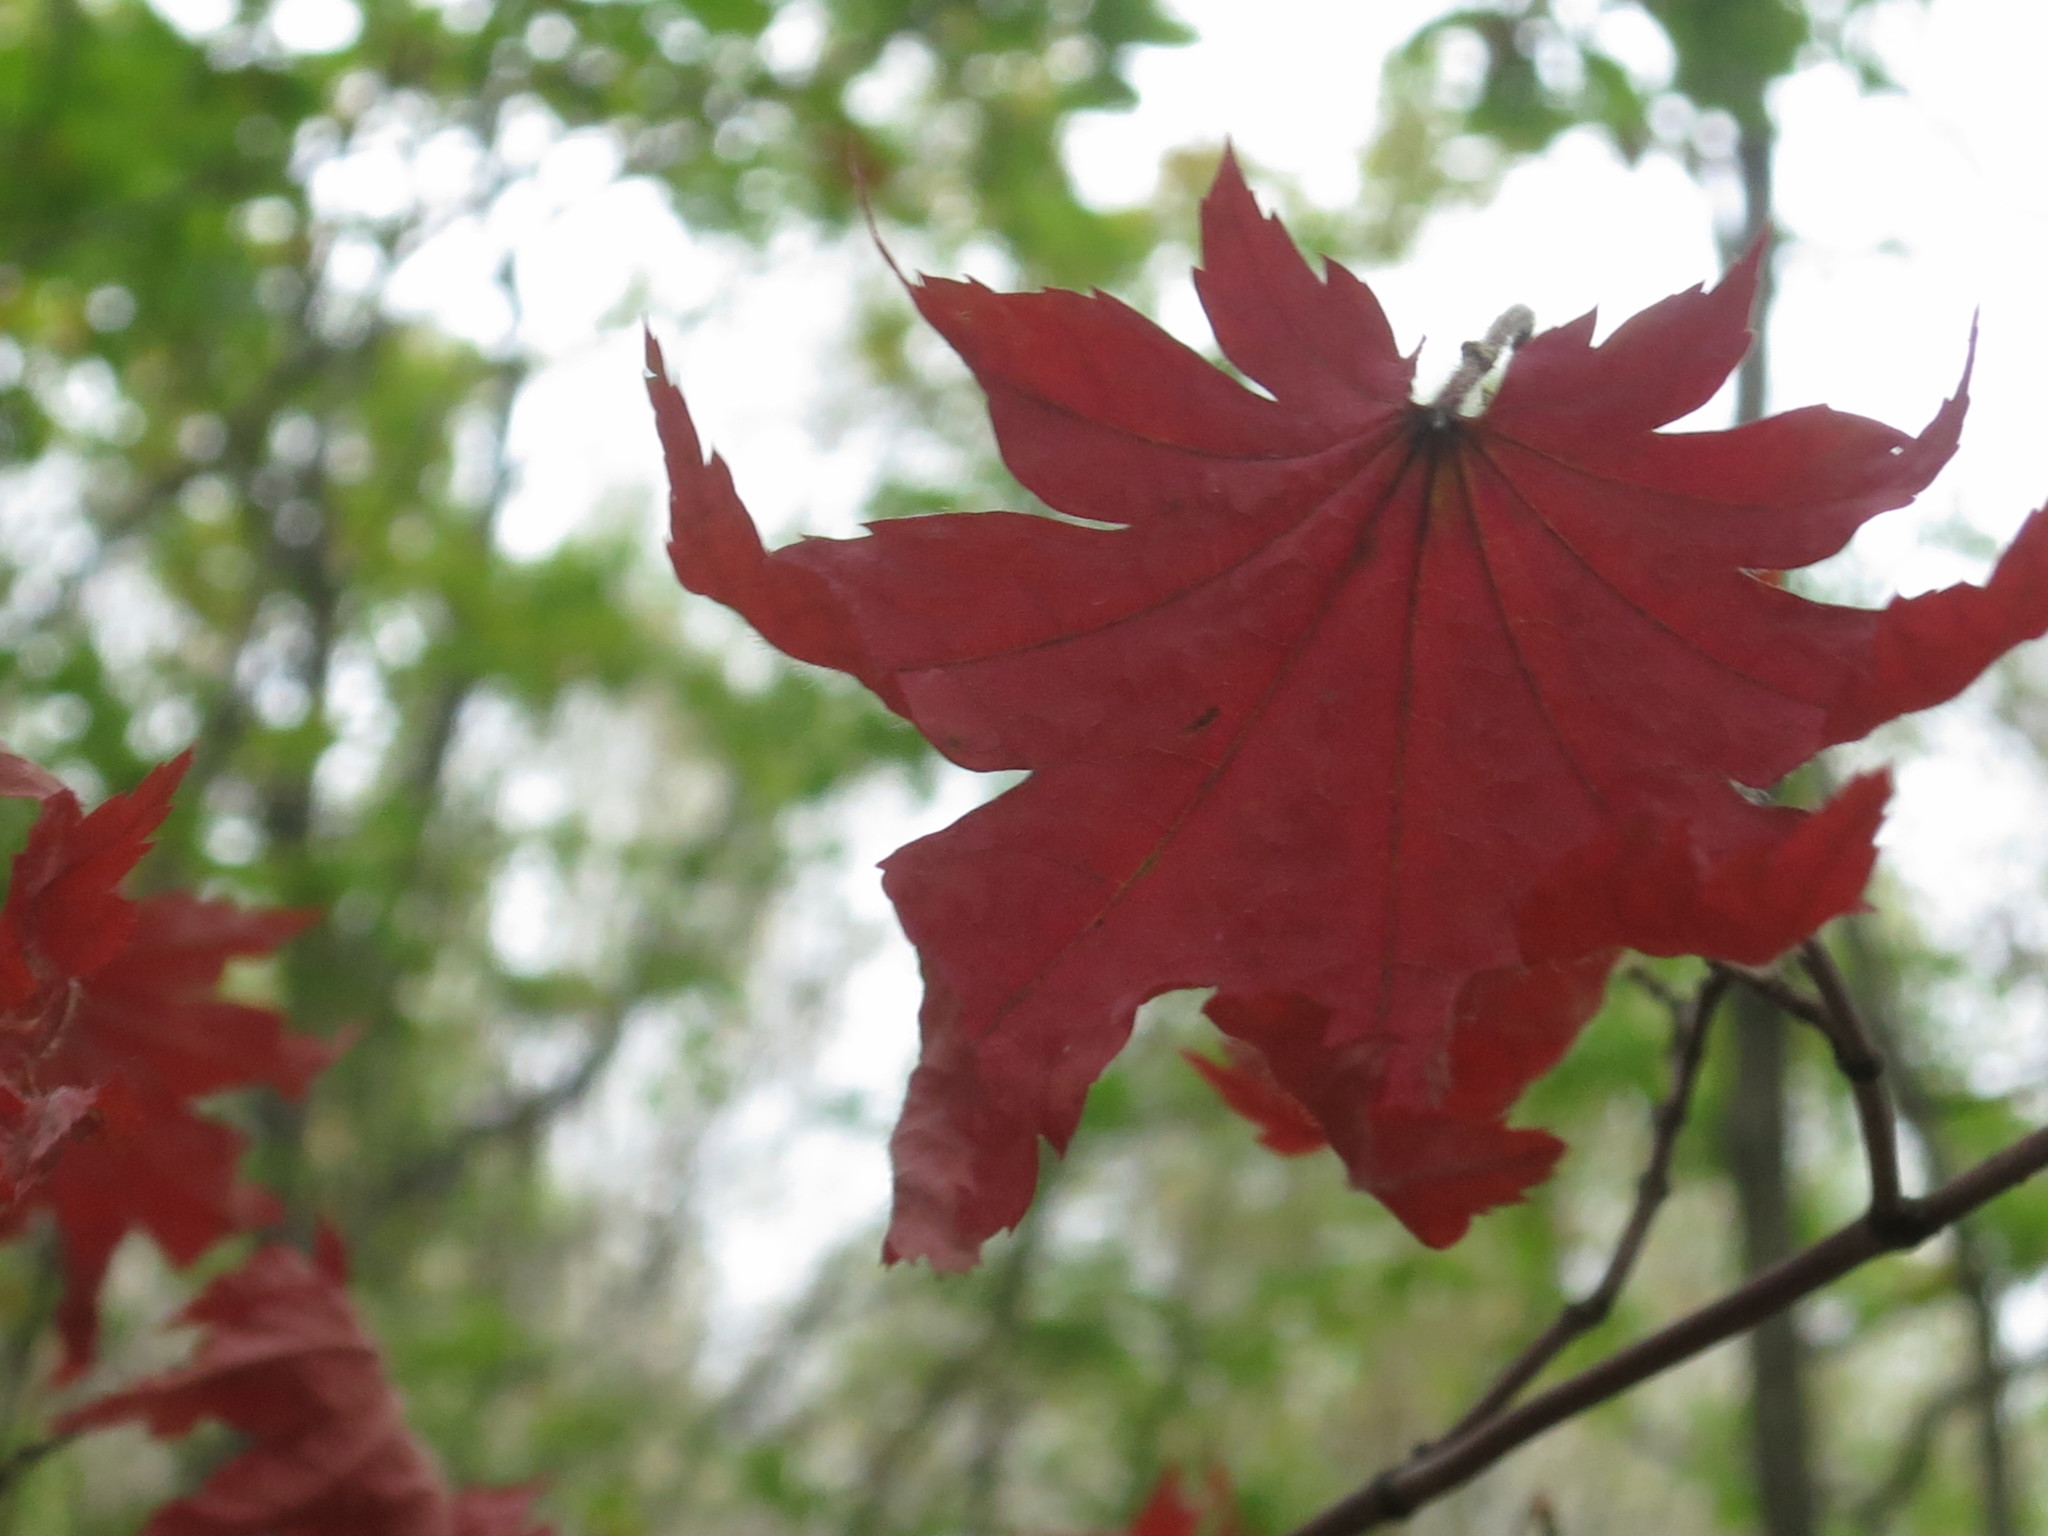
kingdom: Plantae
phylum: Tracheophyta
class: Magnoliopsida
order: Sapindales
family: Sapindaceae
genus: Acer
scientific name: Acer pseudosieboldianum
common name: Korean maple
